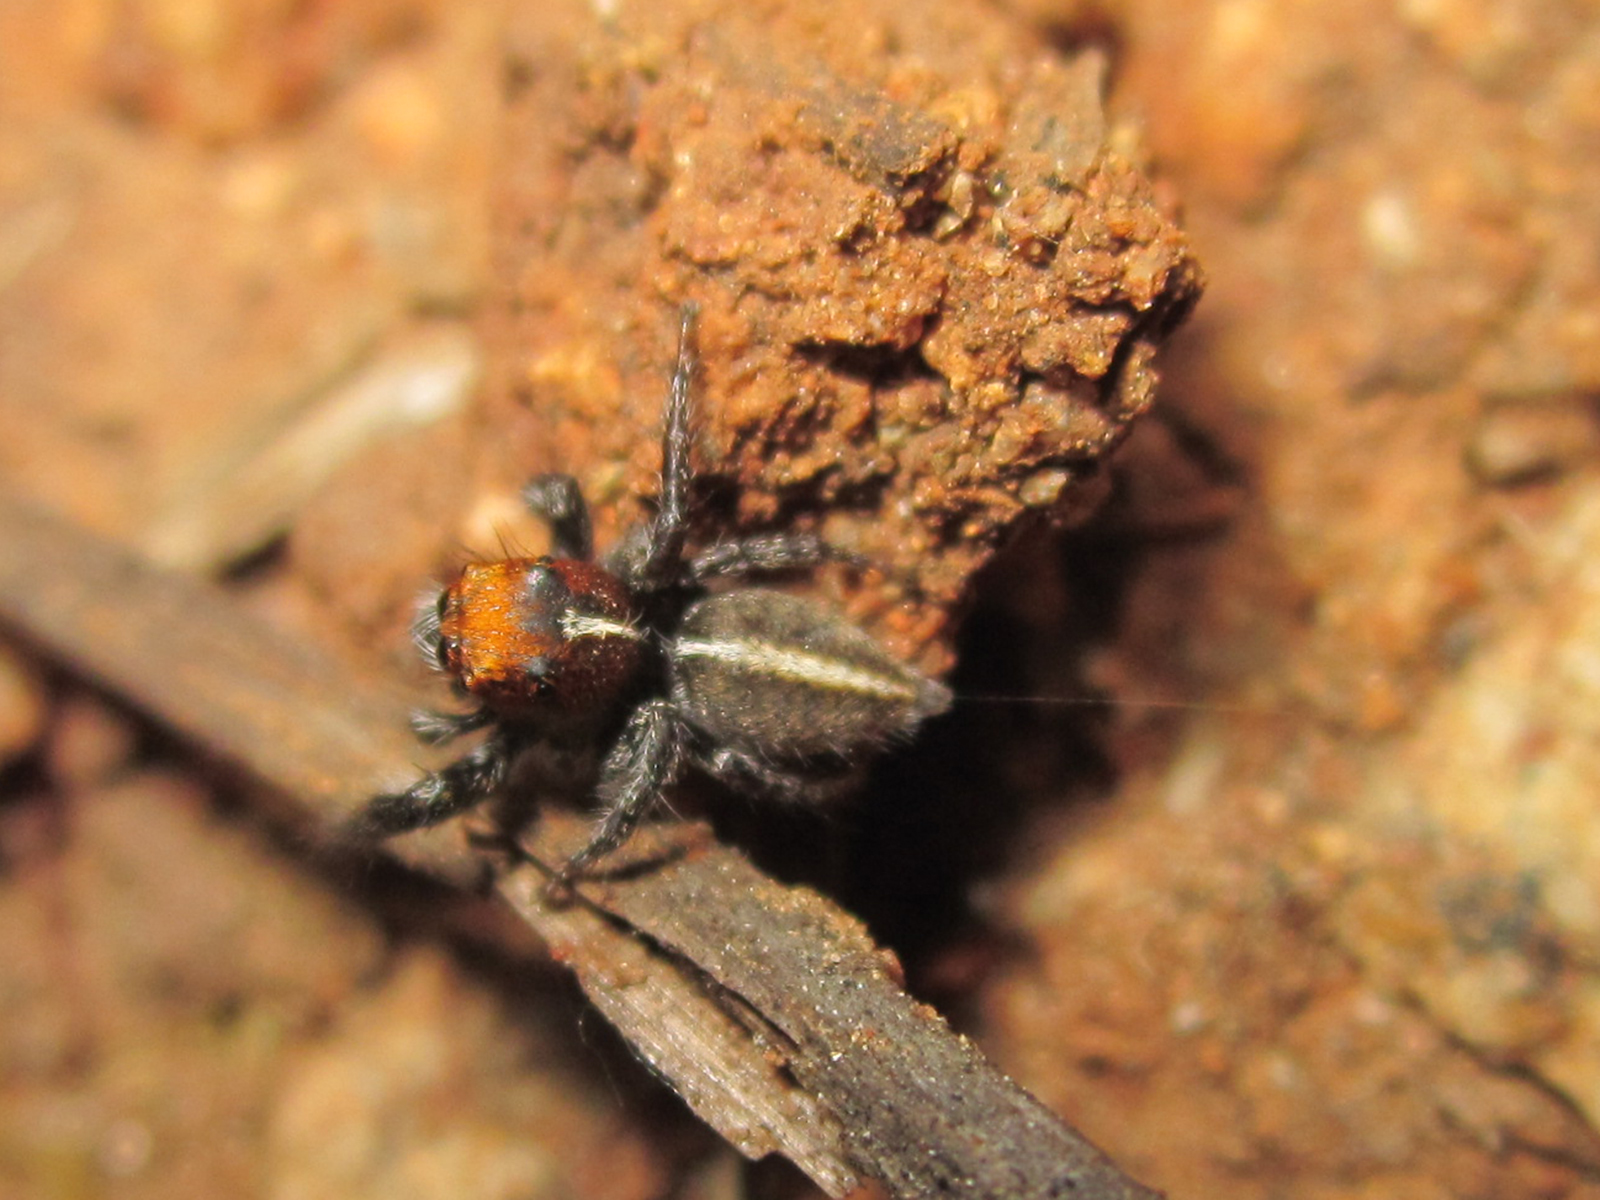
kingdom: Animalia
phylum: Arthropoda
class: Arachnida
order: Araneae
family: Salticidae
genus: Trydarssus
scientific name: Trydarssus nobilitatus
